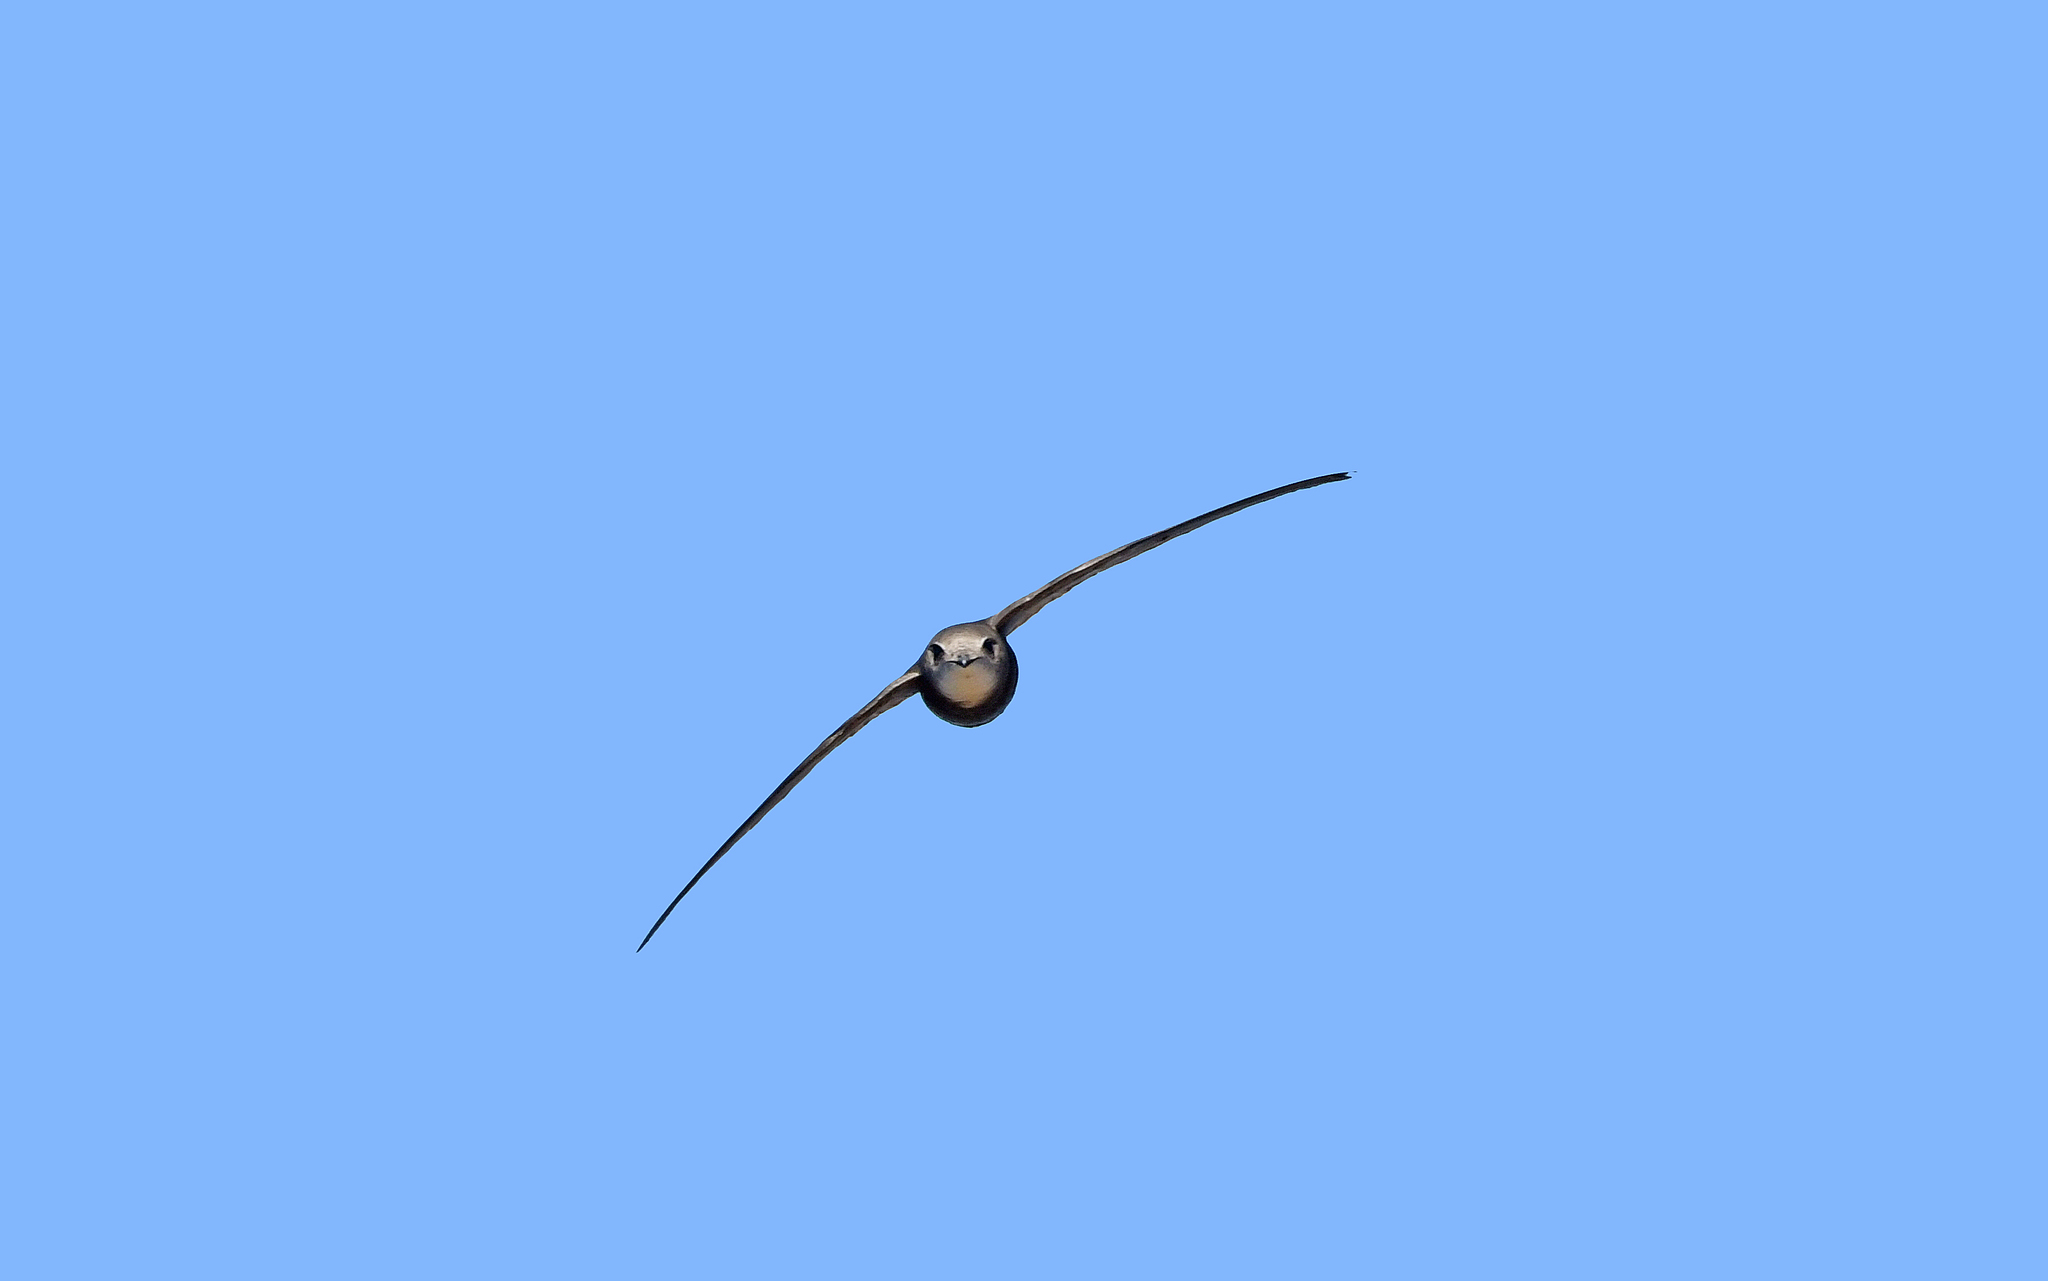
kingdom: Animalia
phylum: Chordata
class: Aves
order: Apodiformes
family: Apodidae
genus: Apus
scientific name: Apus pallidus
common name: Pallid swift
